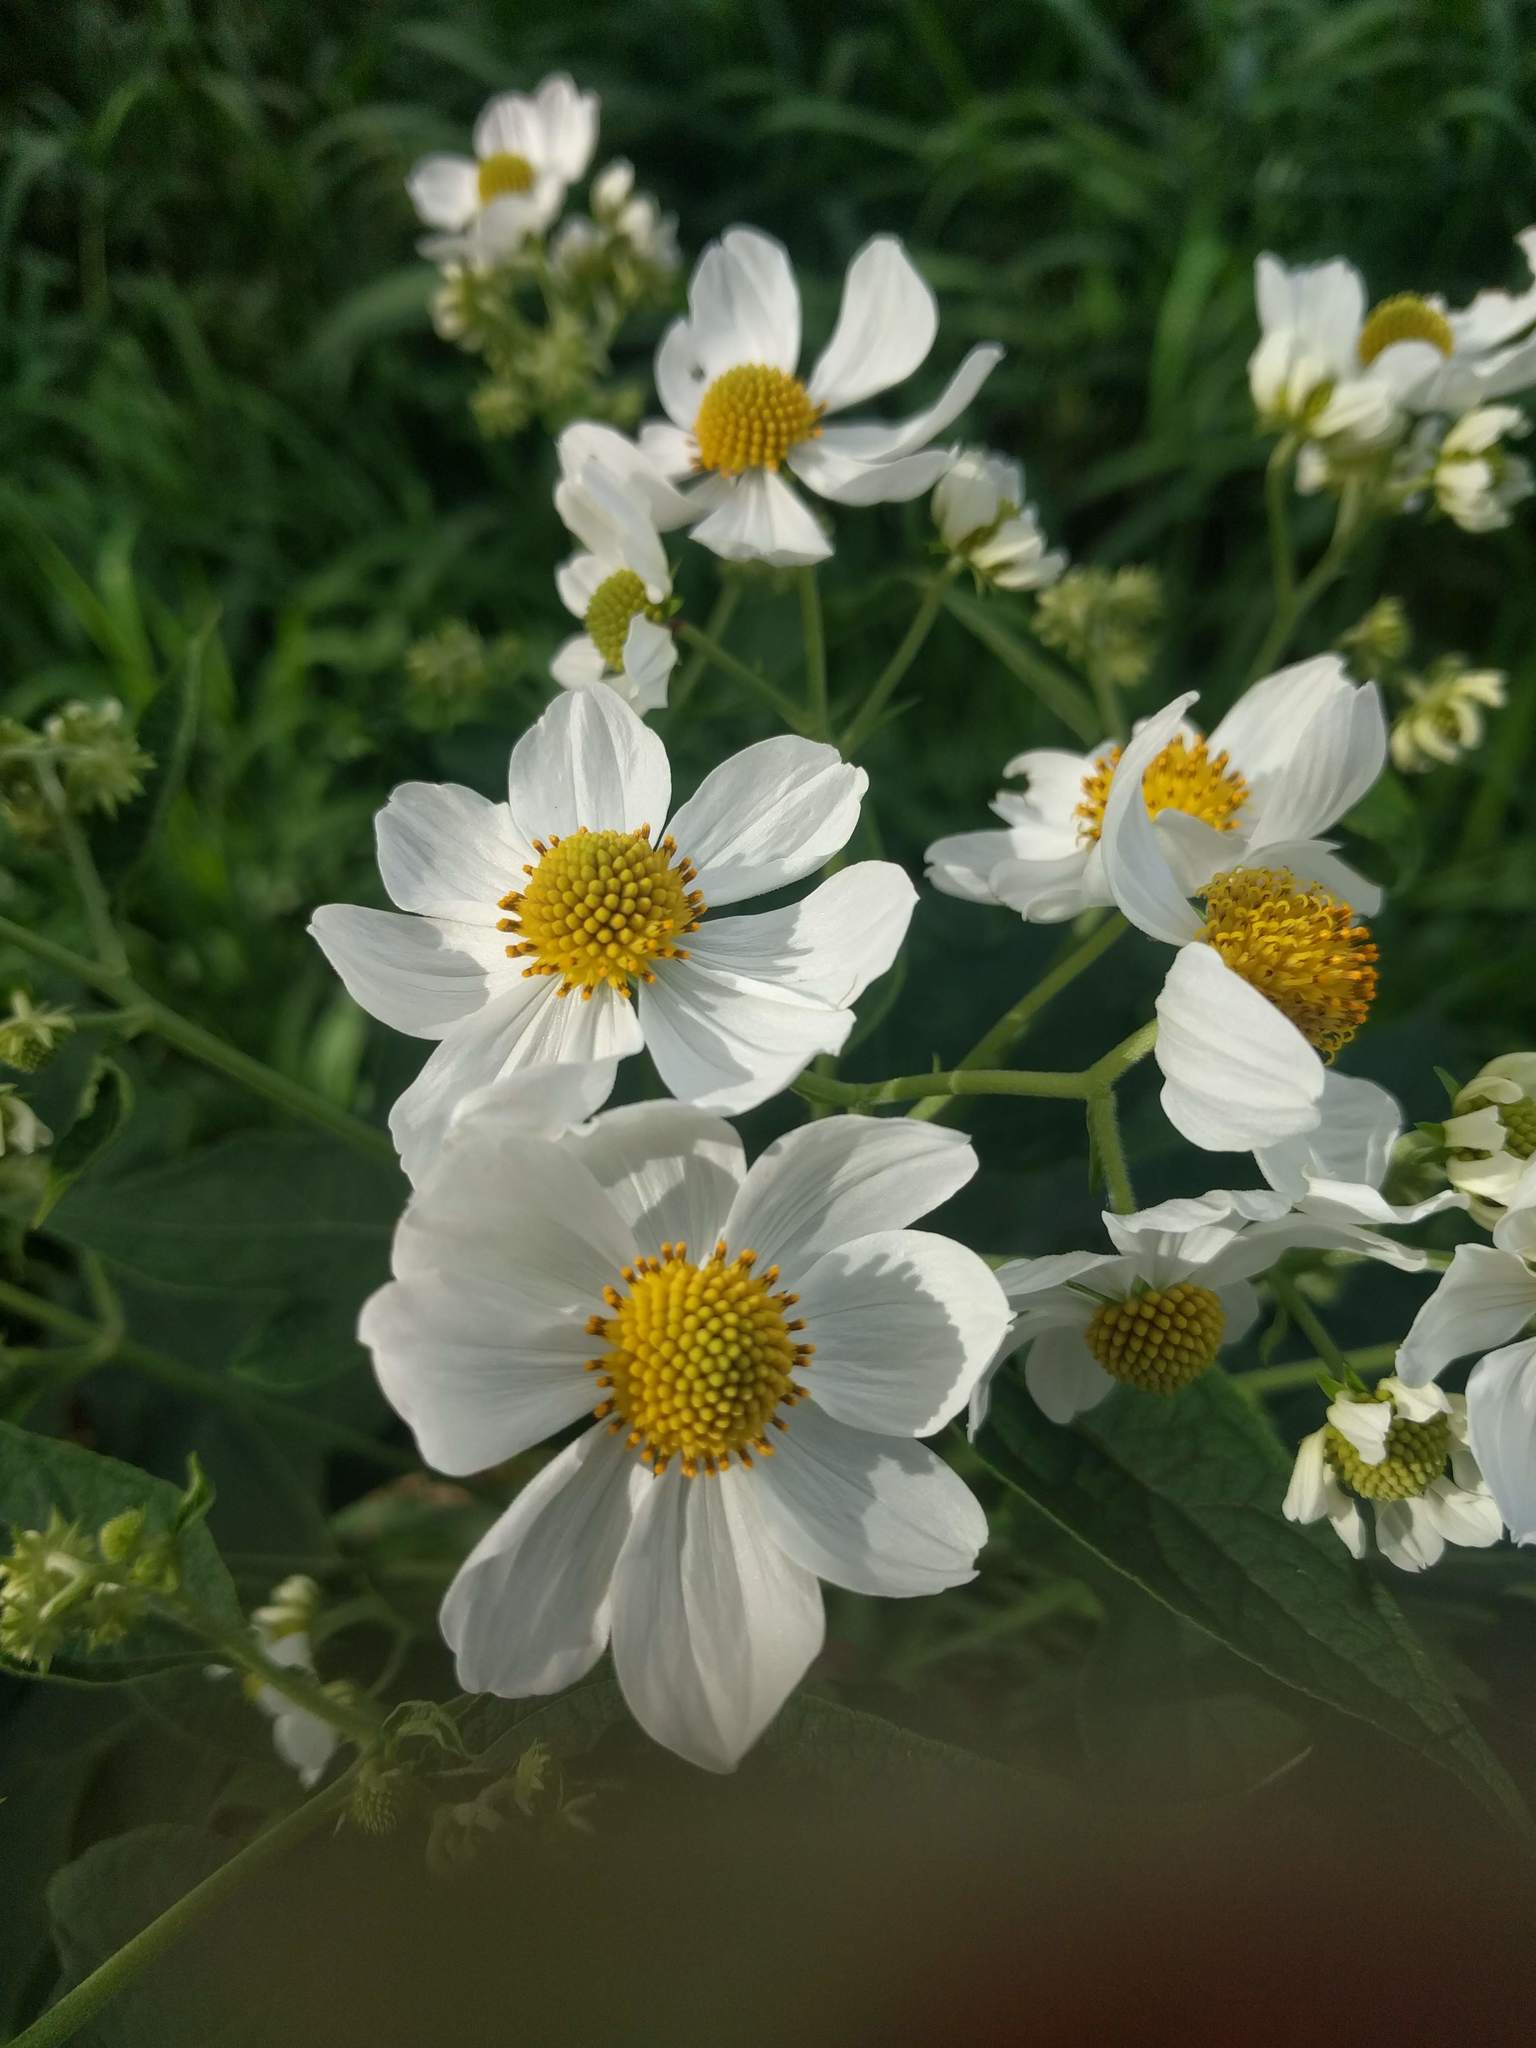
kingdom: Plantae
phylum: Tracheophyta
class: Magnoliopsida
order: Asterales
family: Asteraceae
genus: Montanoa
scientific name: Montanoa hibiscifolia
